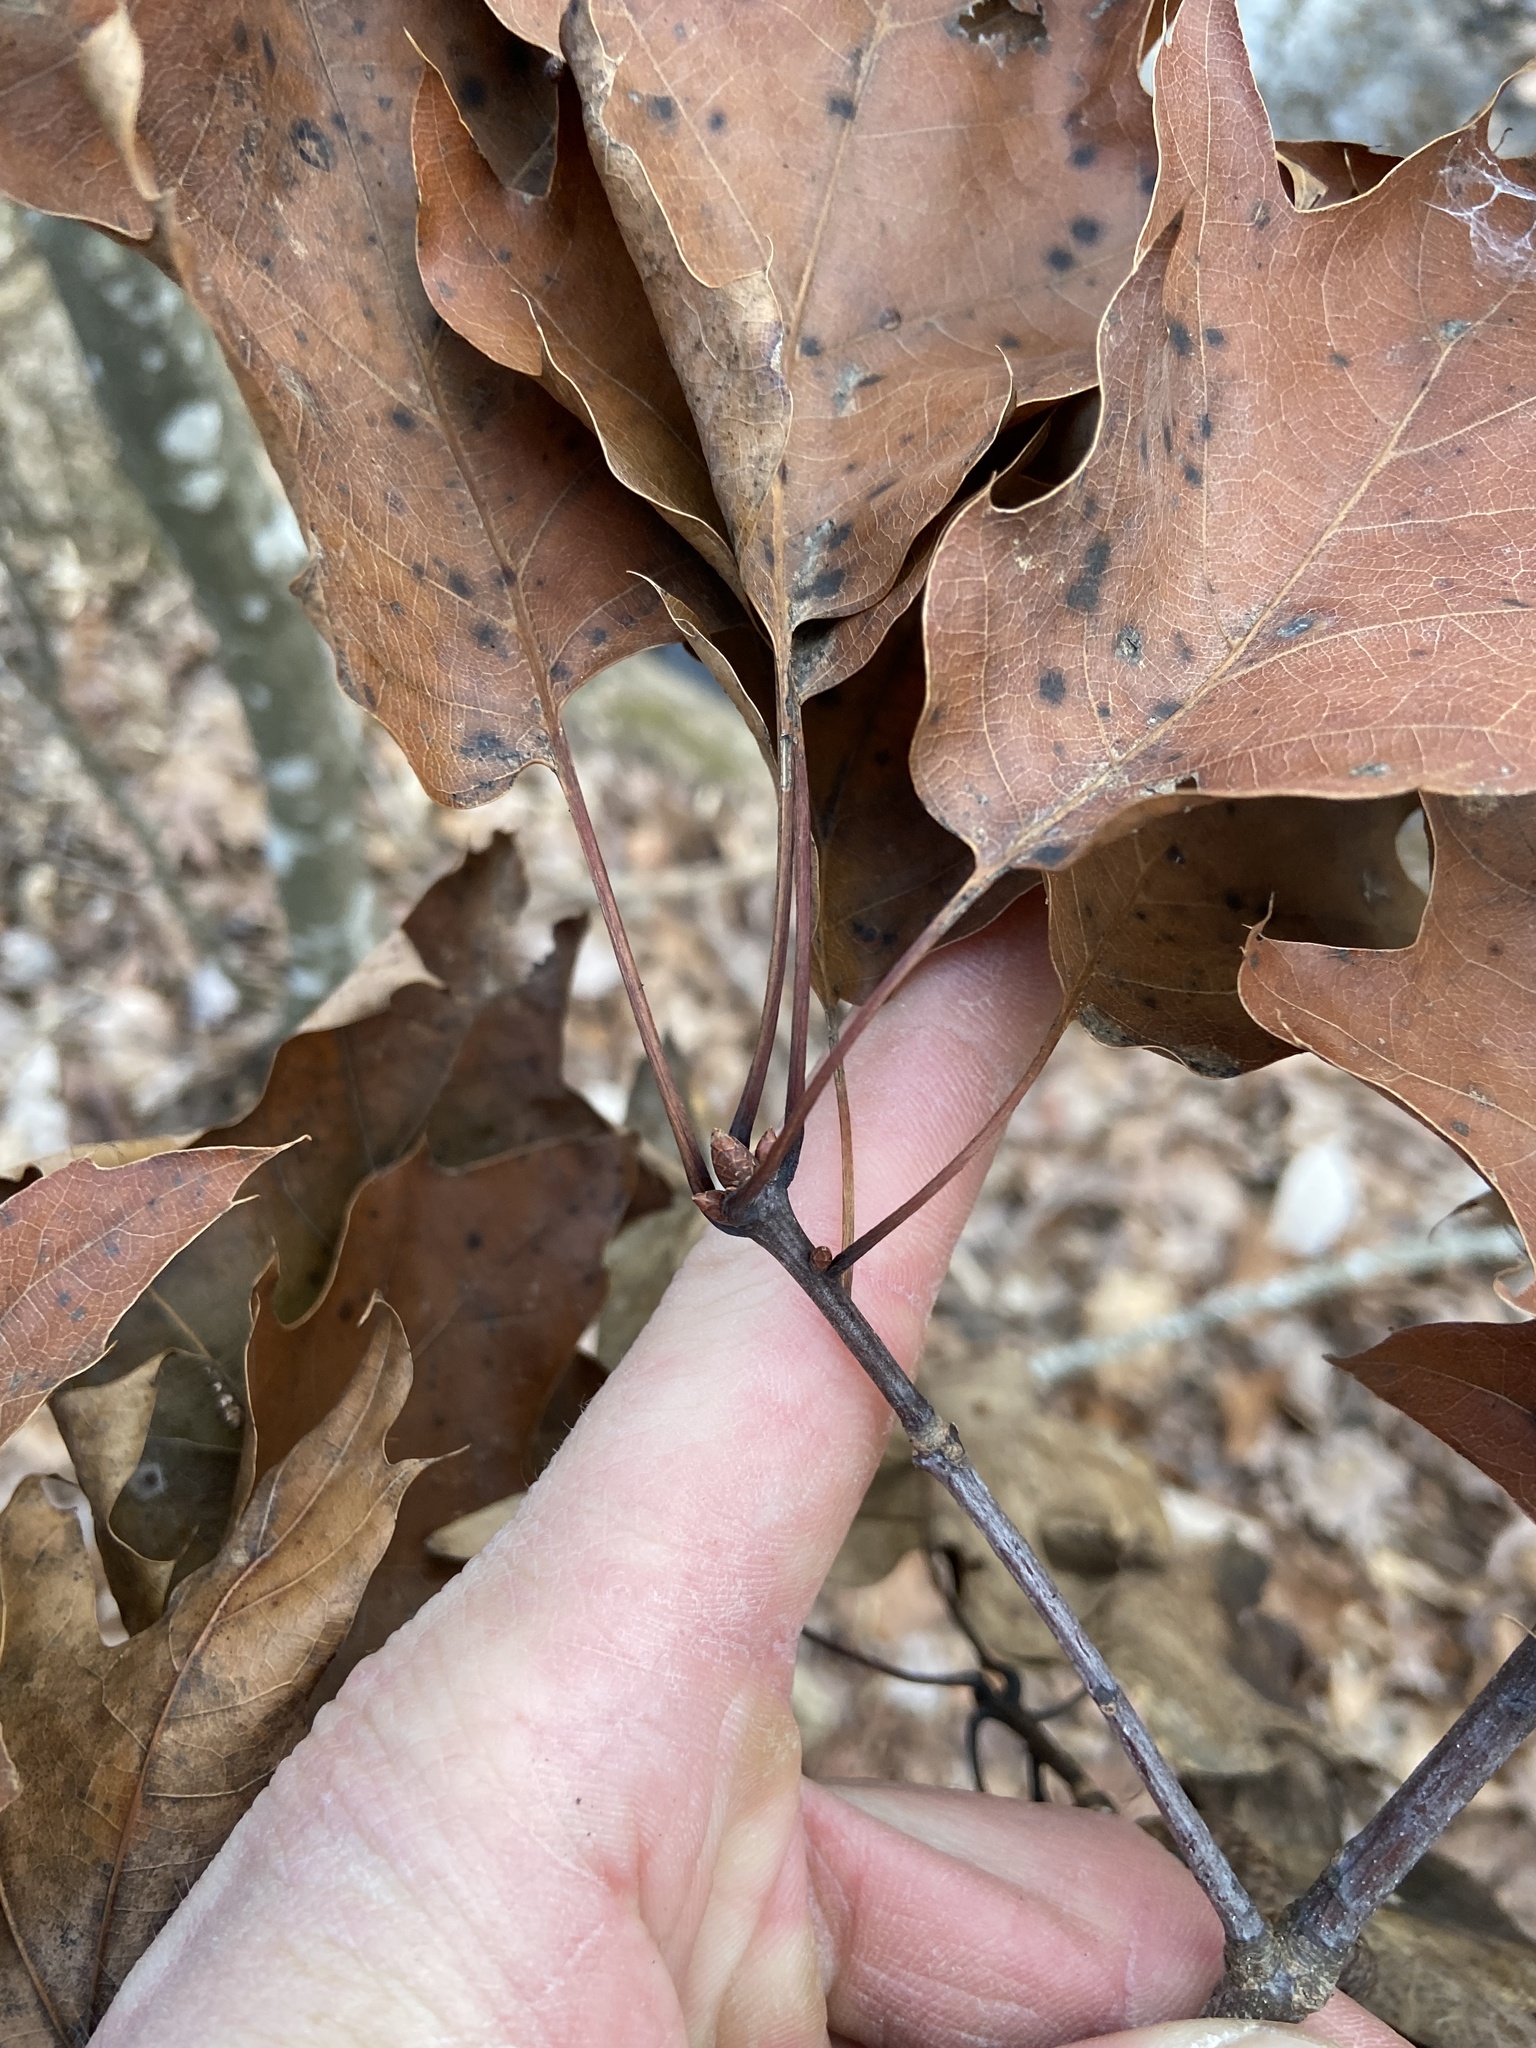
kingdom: Plantae
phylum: Tracheophyta
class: Magnoliopsida
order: Fagales
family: Fagaceae
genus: Quercus
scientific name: Quercus rubra
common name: Red oak
